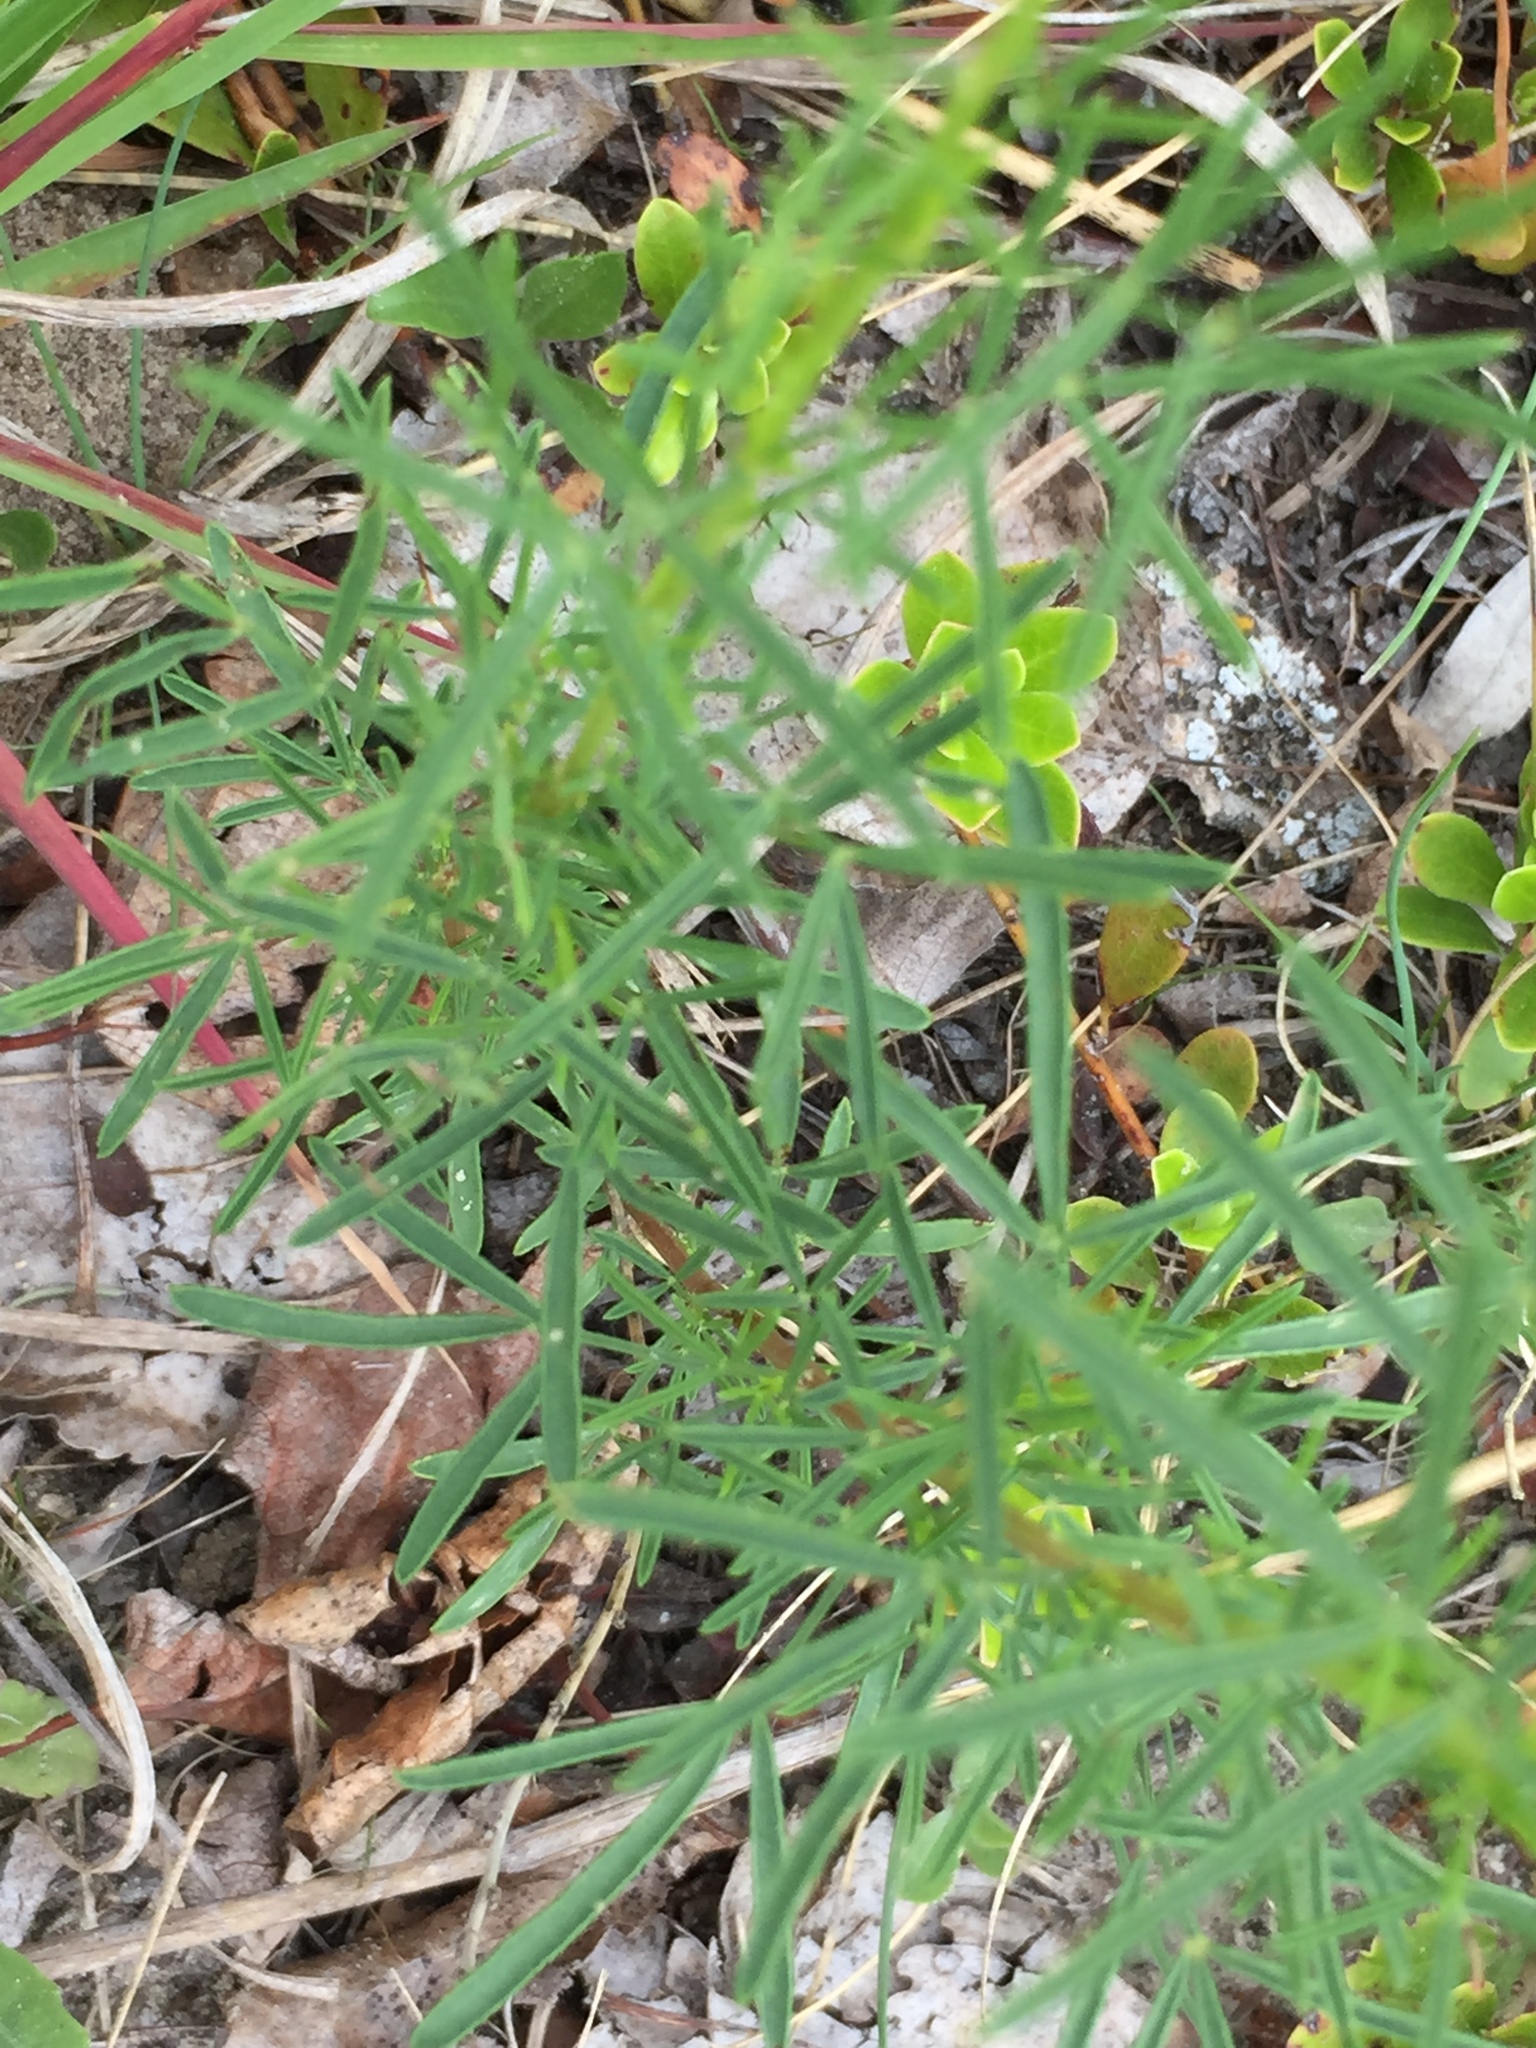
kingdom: Plantae
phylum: Tracheophyta
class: Magnoliopsida
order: Fabales
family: Fabaceae
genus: Dalea
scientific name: Dalea purpurea
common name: Purple prairie-clover
